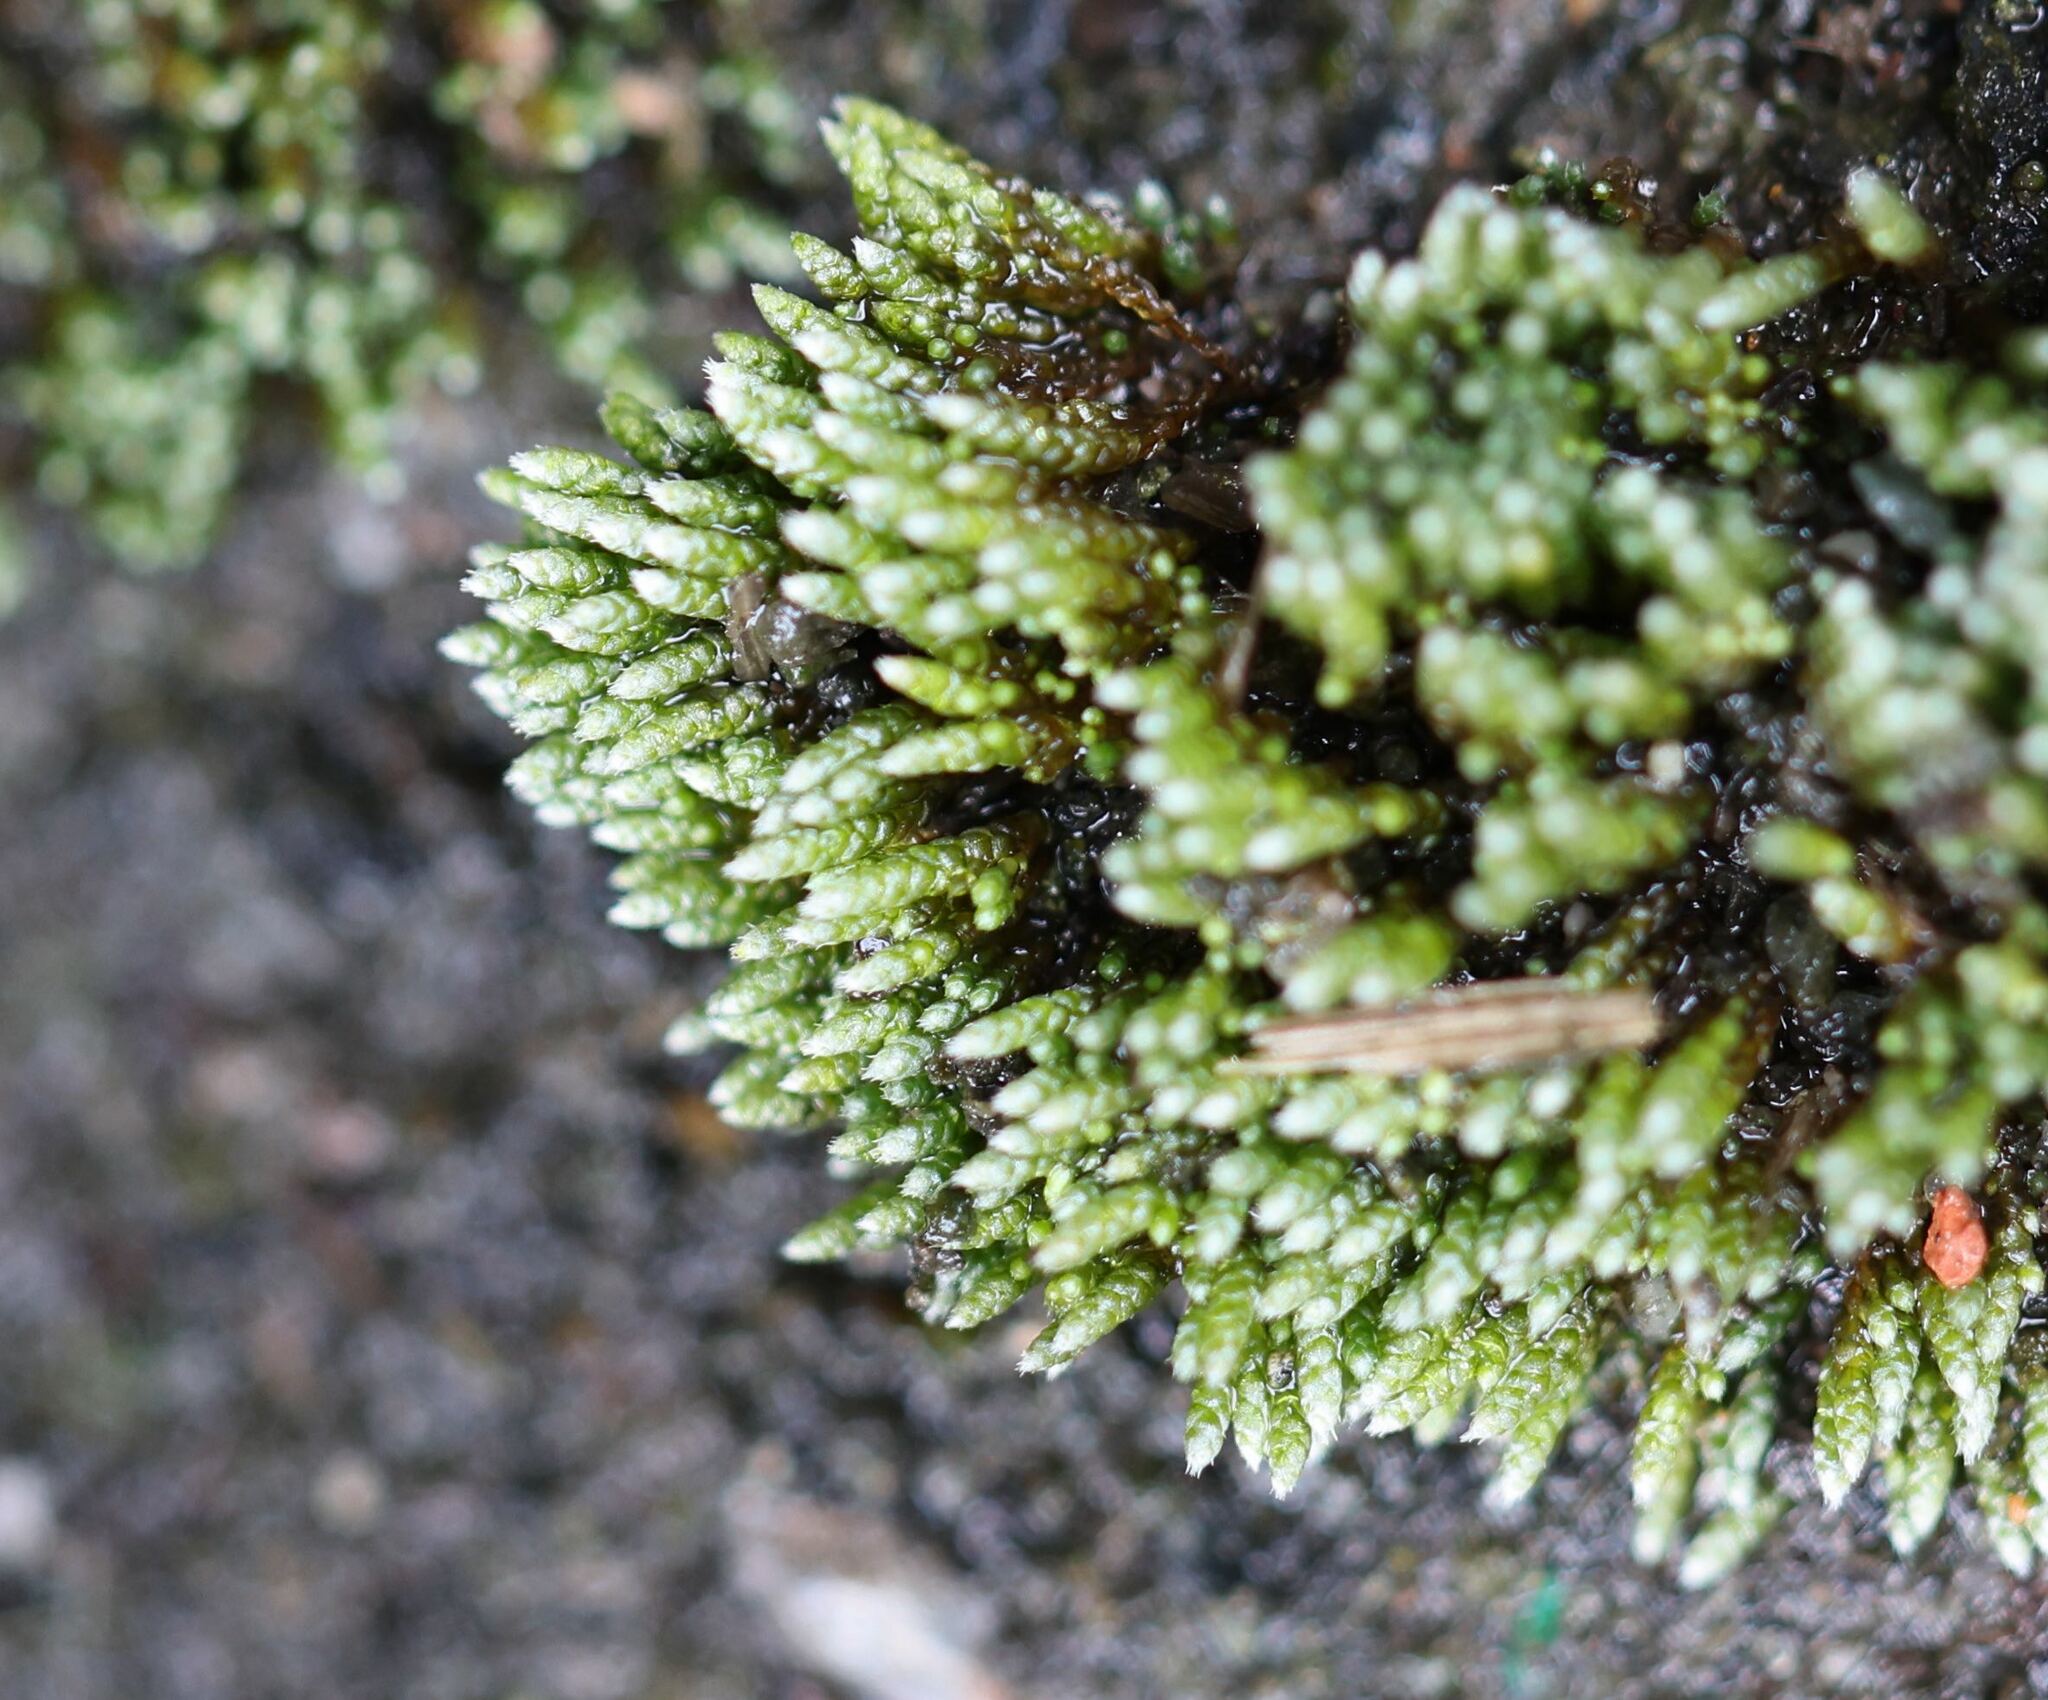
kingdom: Plantae
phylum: Bryophyta
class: Bryopsida
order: Bryales
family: Bryaceae
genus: Bryum
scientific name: Bryum argenteum
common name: Silver-moss
